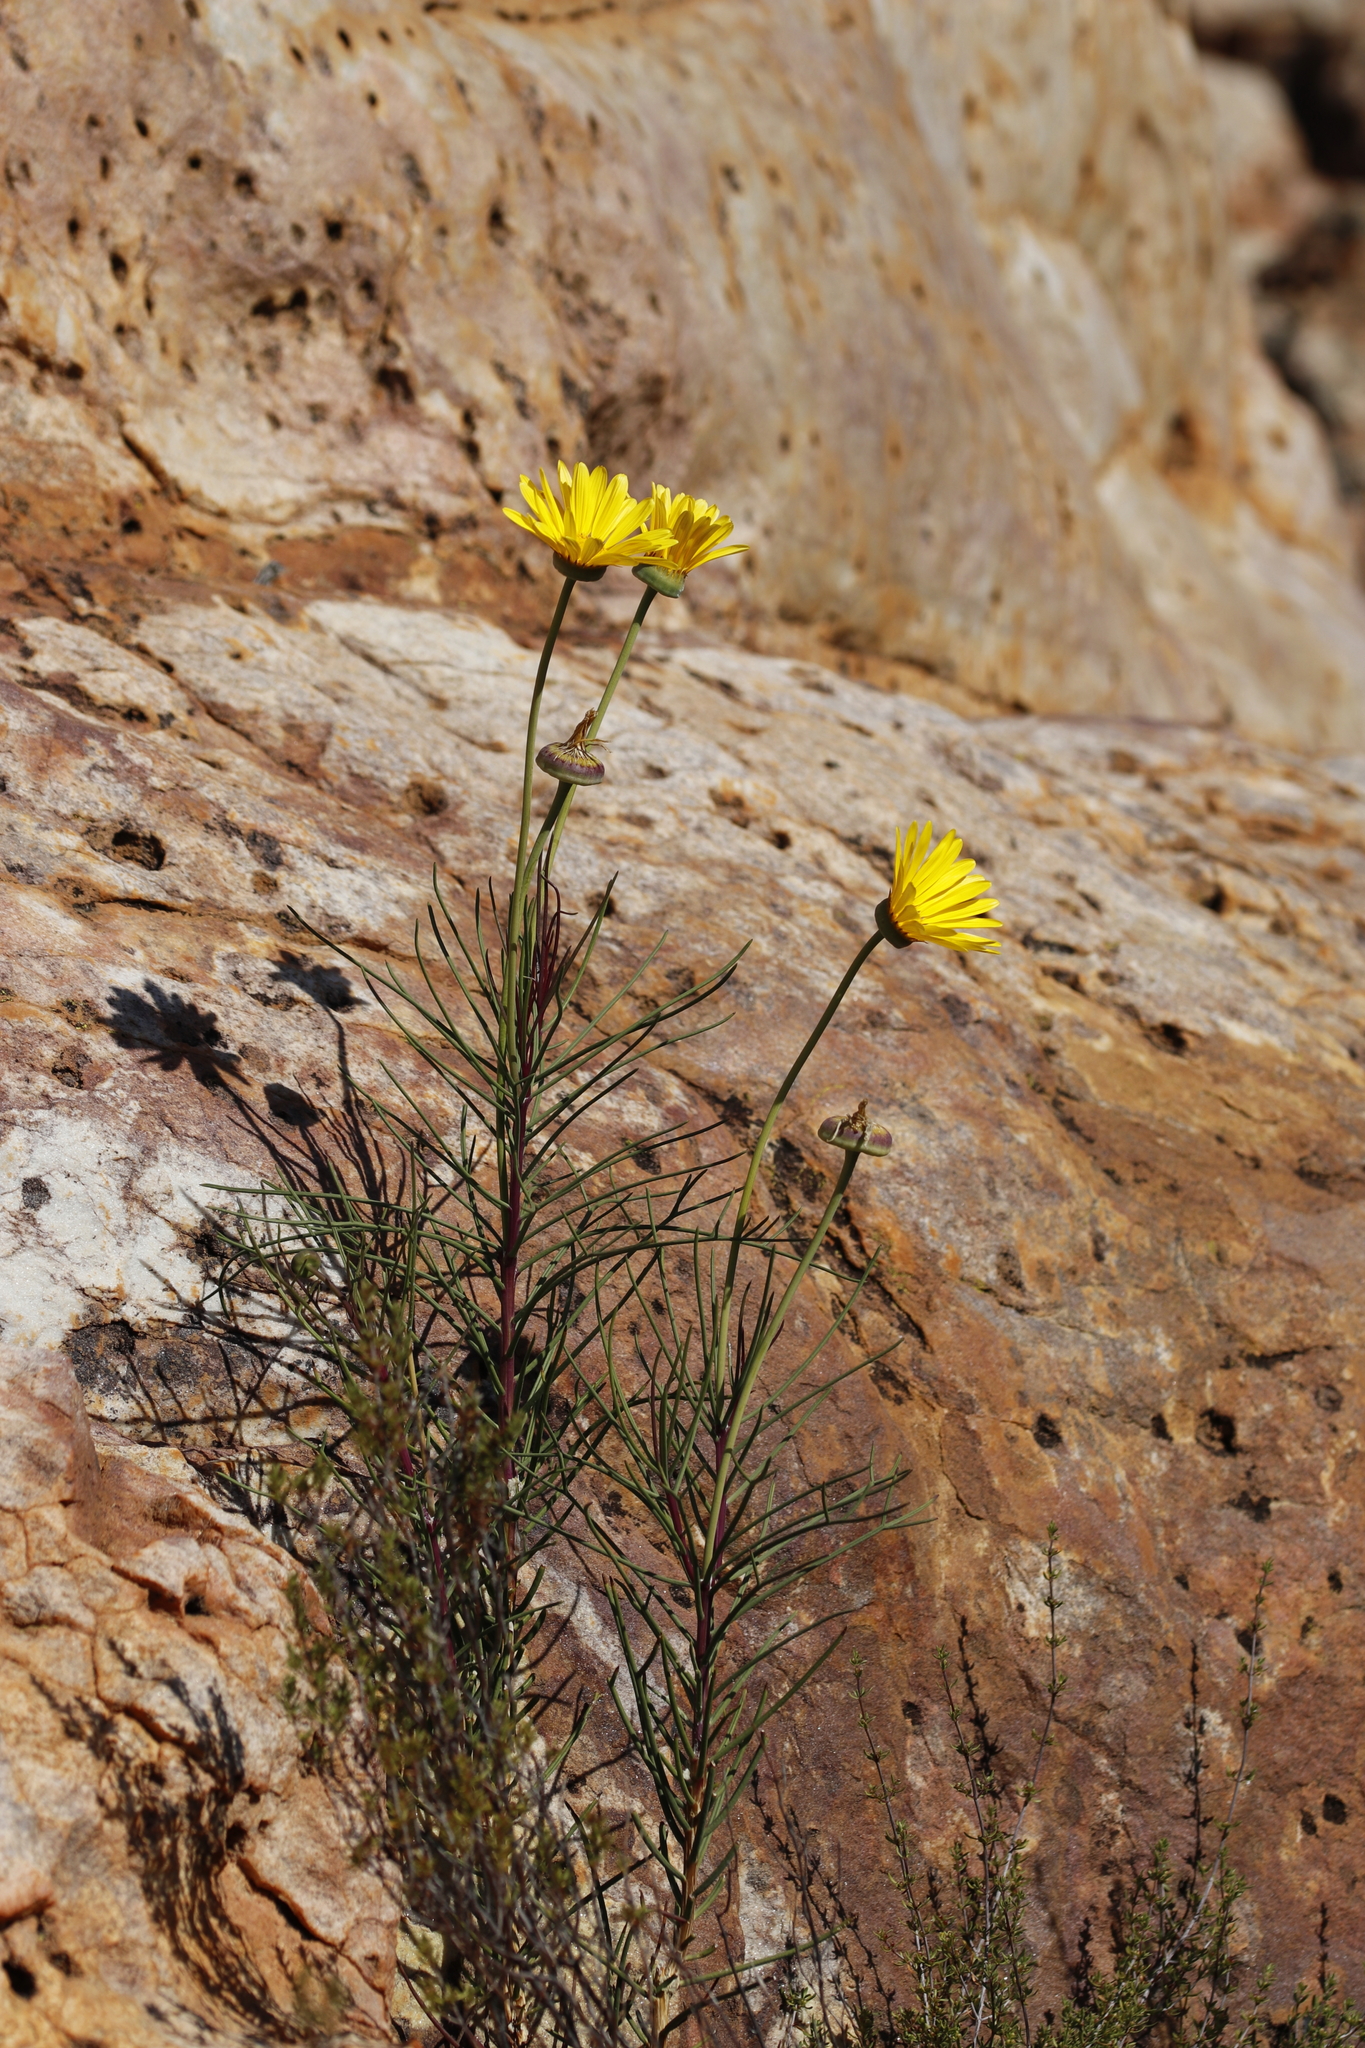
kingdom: Plantae
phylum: Tracheophyta
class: Magnoliopsida
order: Asterales
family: Asteraceae
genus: Euryops
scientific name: Euryops speciosissimus
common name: Clanwilliam daisy
